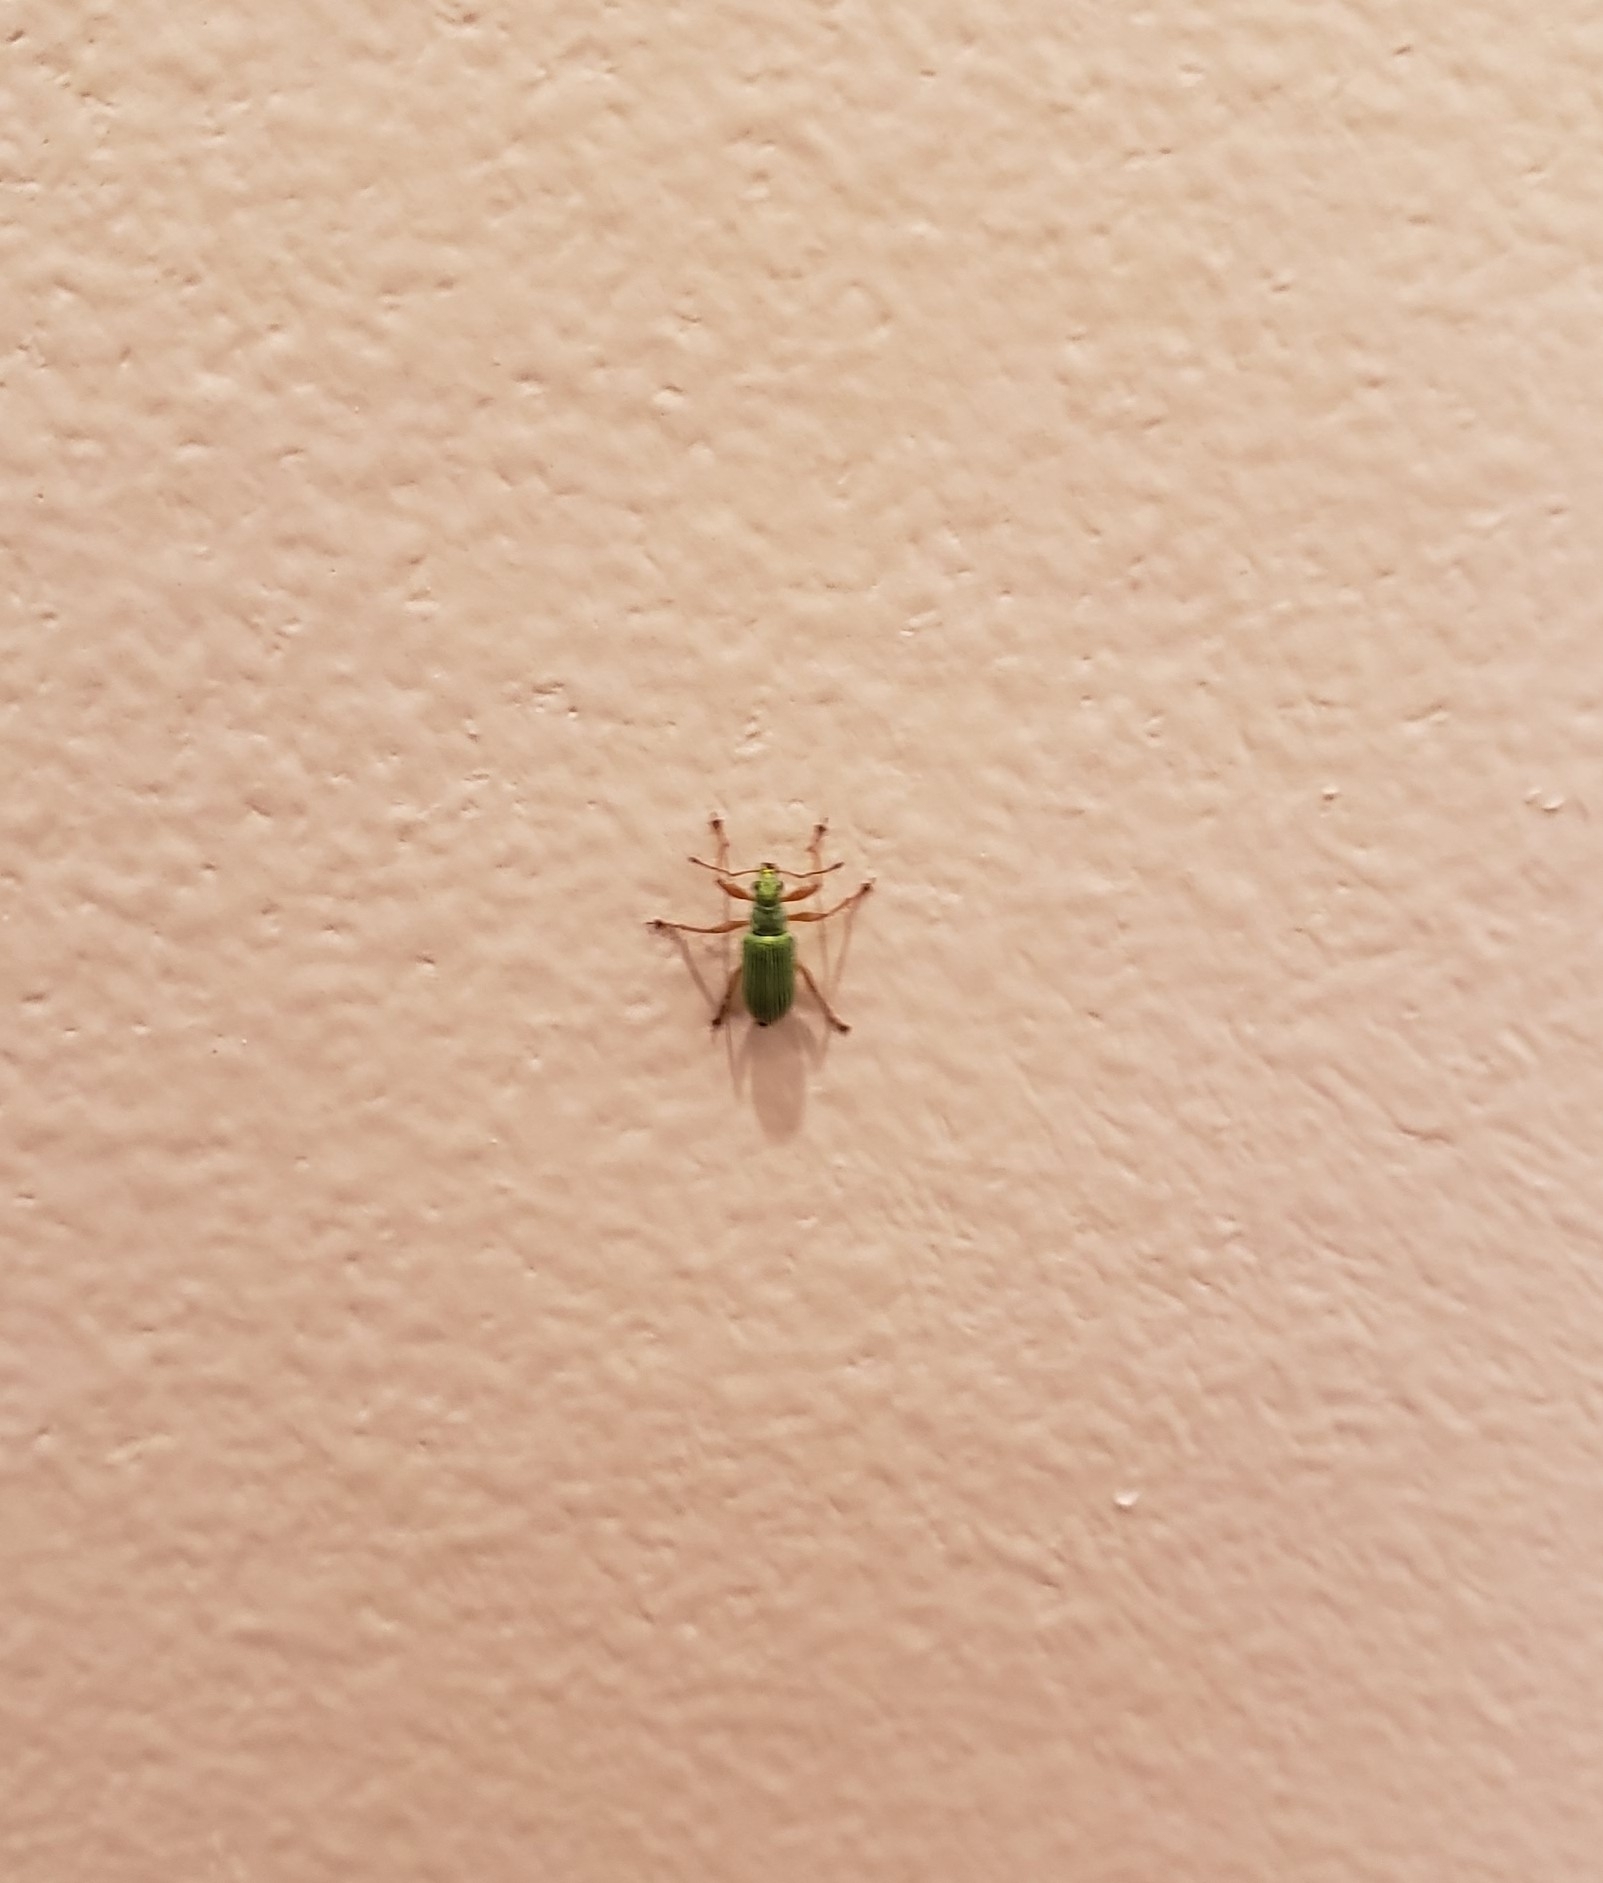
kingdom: Animalia
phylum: Arthropoda
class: Insecta
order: Coleoptera
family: Curculionidae
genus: Polydrusus
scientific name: Polydrusus formosus
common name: Weevil
